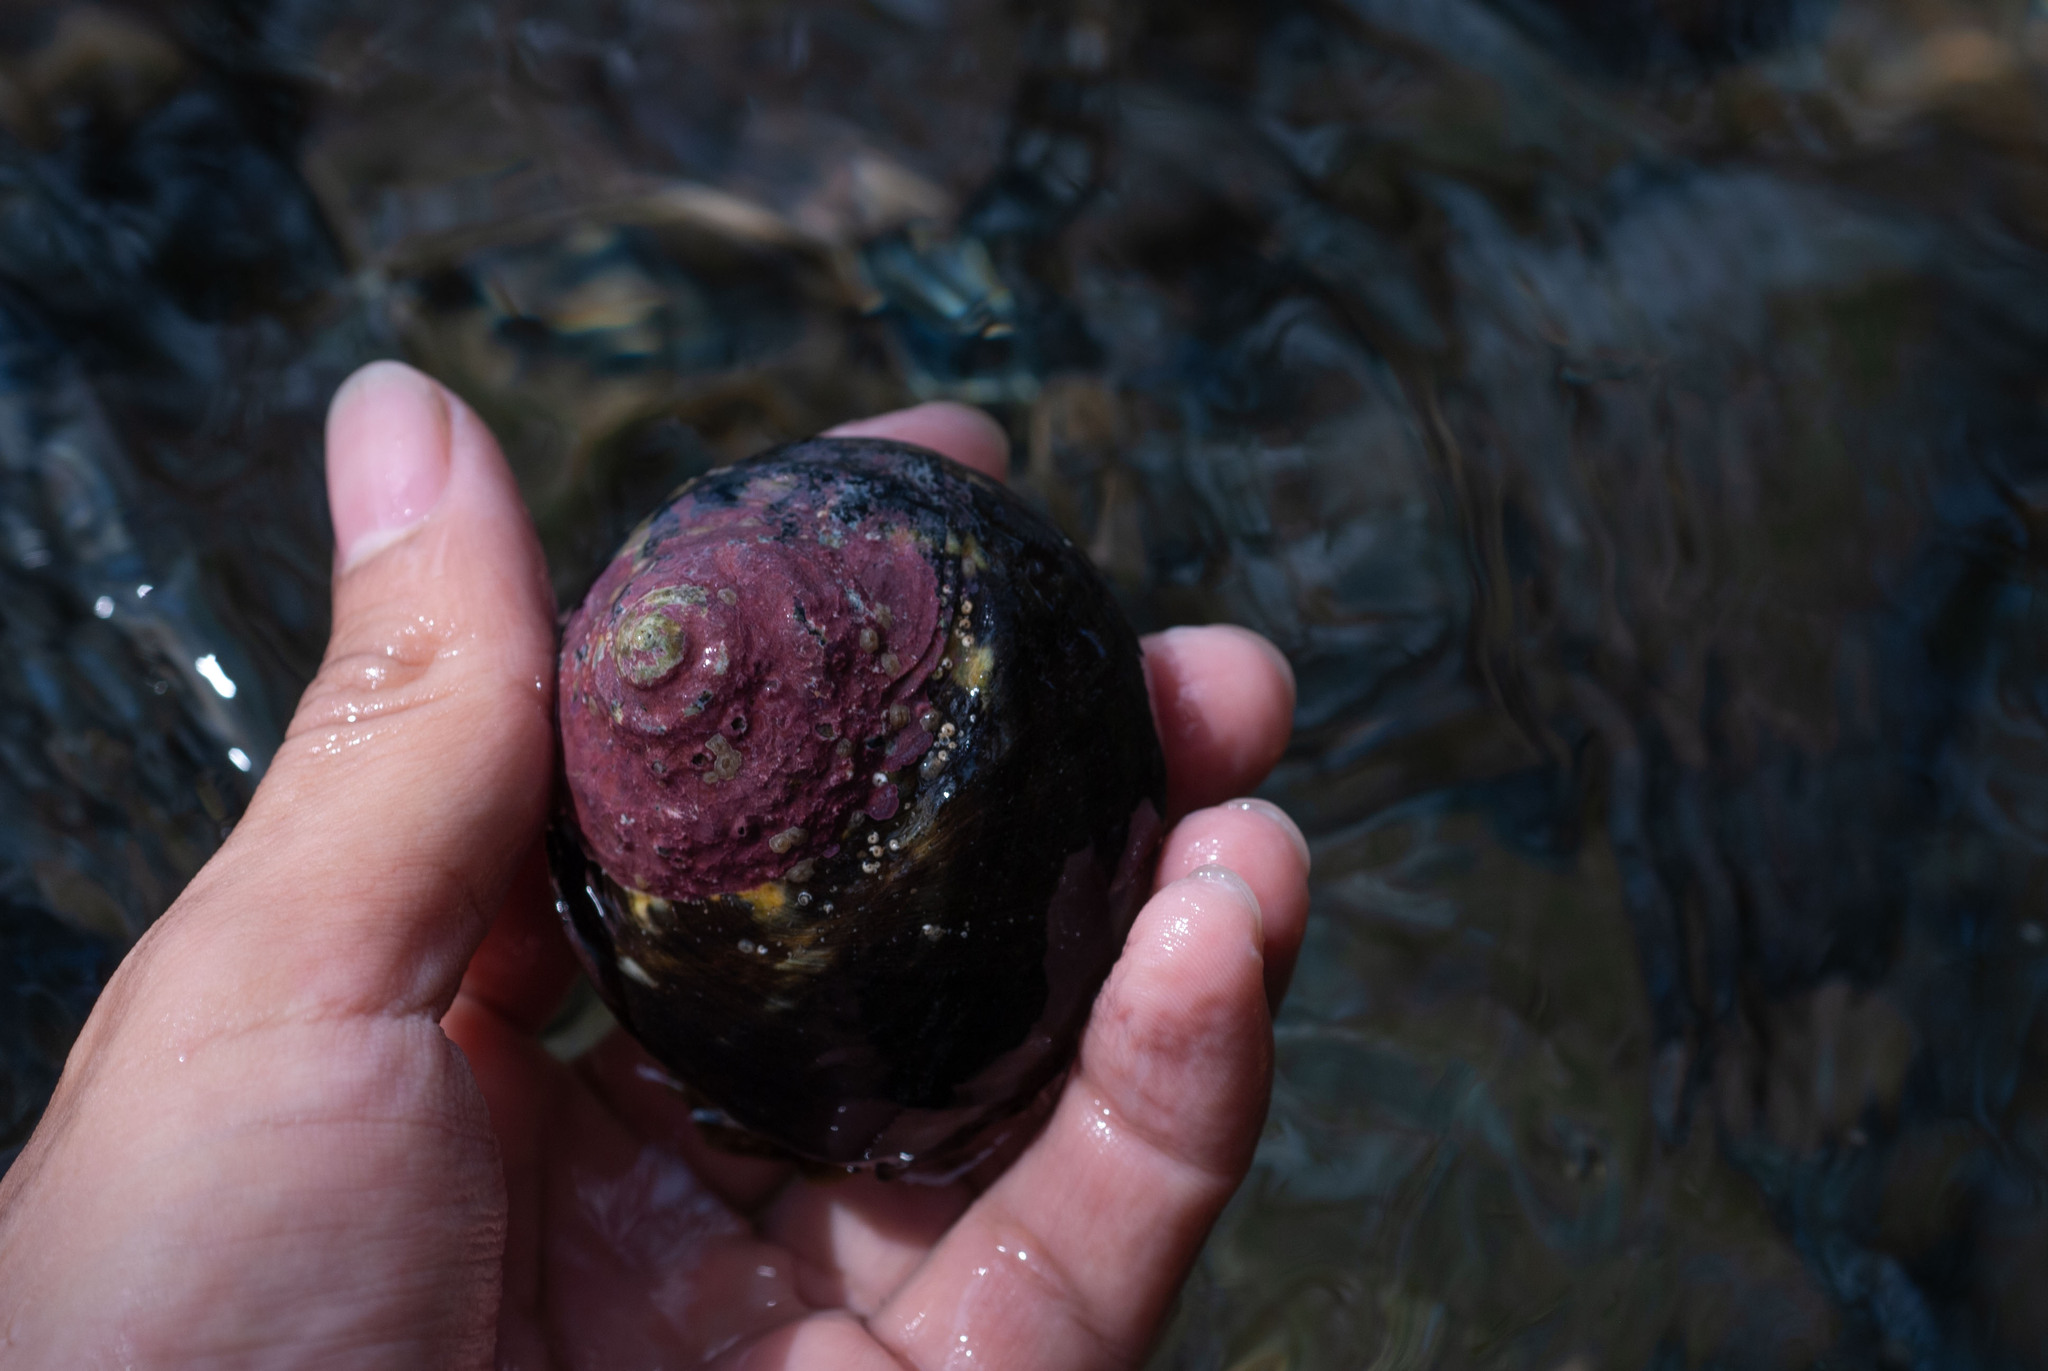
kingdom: Animalia
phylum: Mollusca
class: Gastropoda
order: Trochida
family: Tegulidae
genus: Cittarium
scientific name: Cittarium pica
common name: West indian topshell
